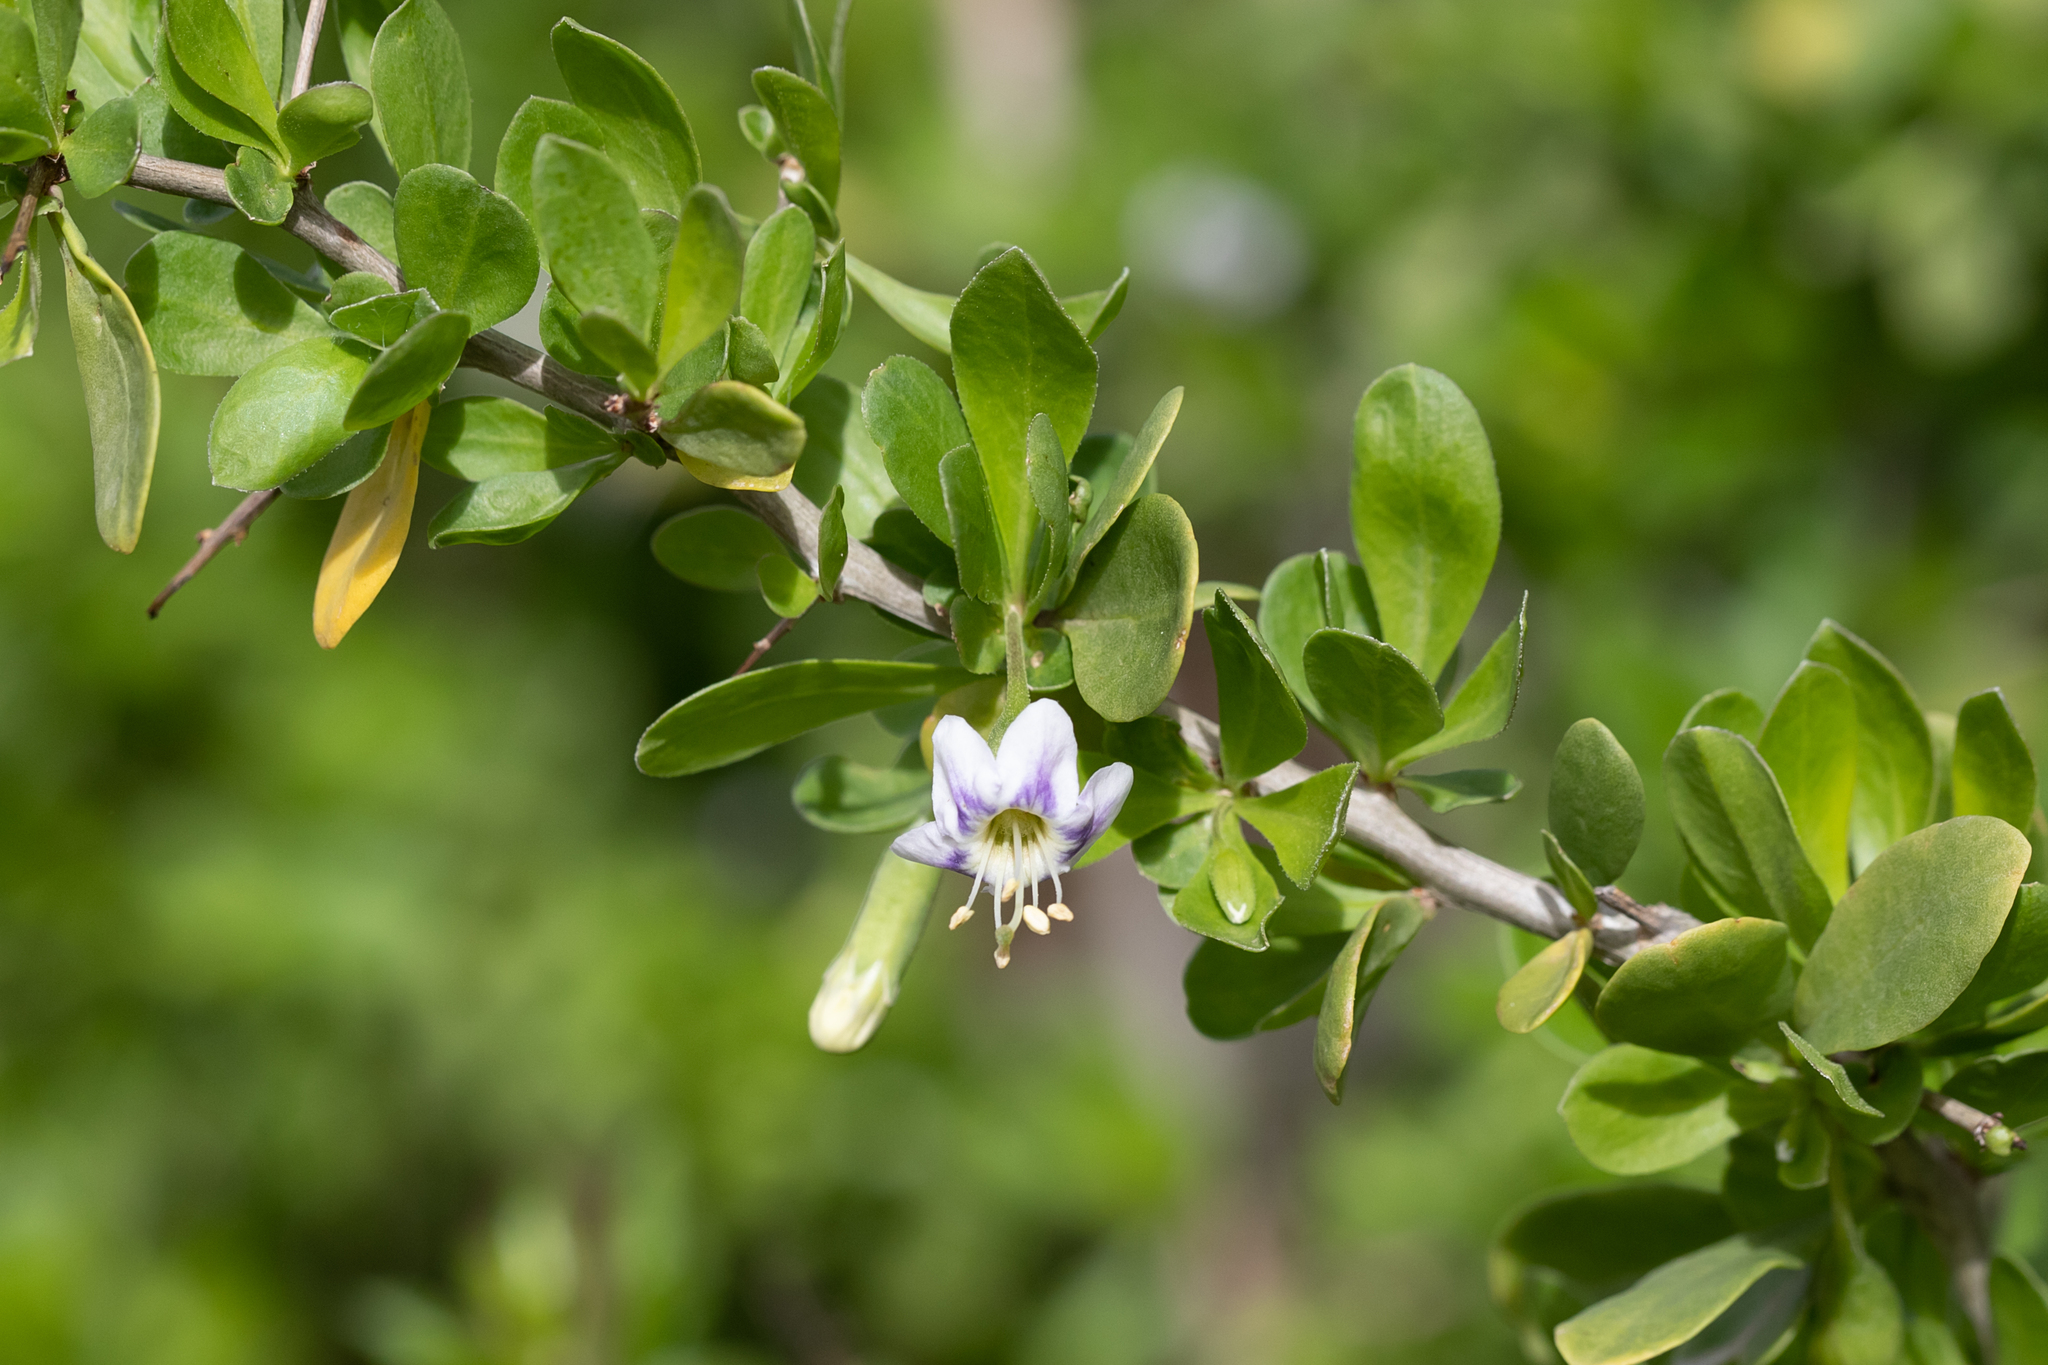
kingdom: Plantae
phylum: Tracheophyta
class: Magnoliopsida
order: Solanales
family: Solanaceae
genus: Lycium
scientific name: Lycium ferocissimum
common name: African boxthorn
